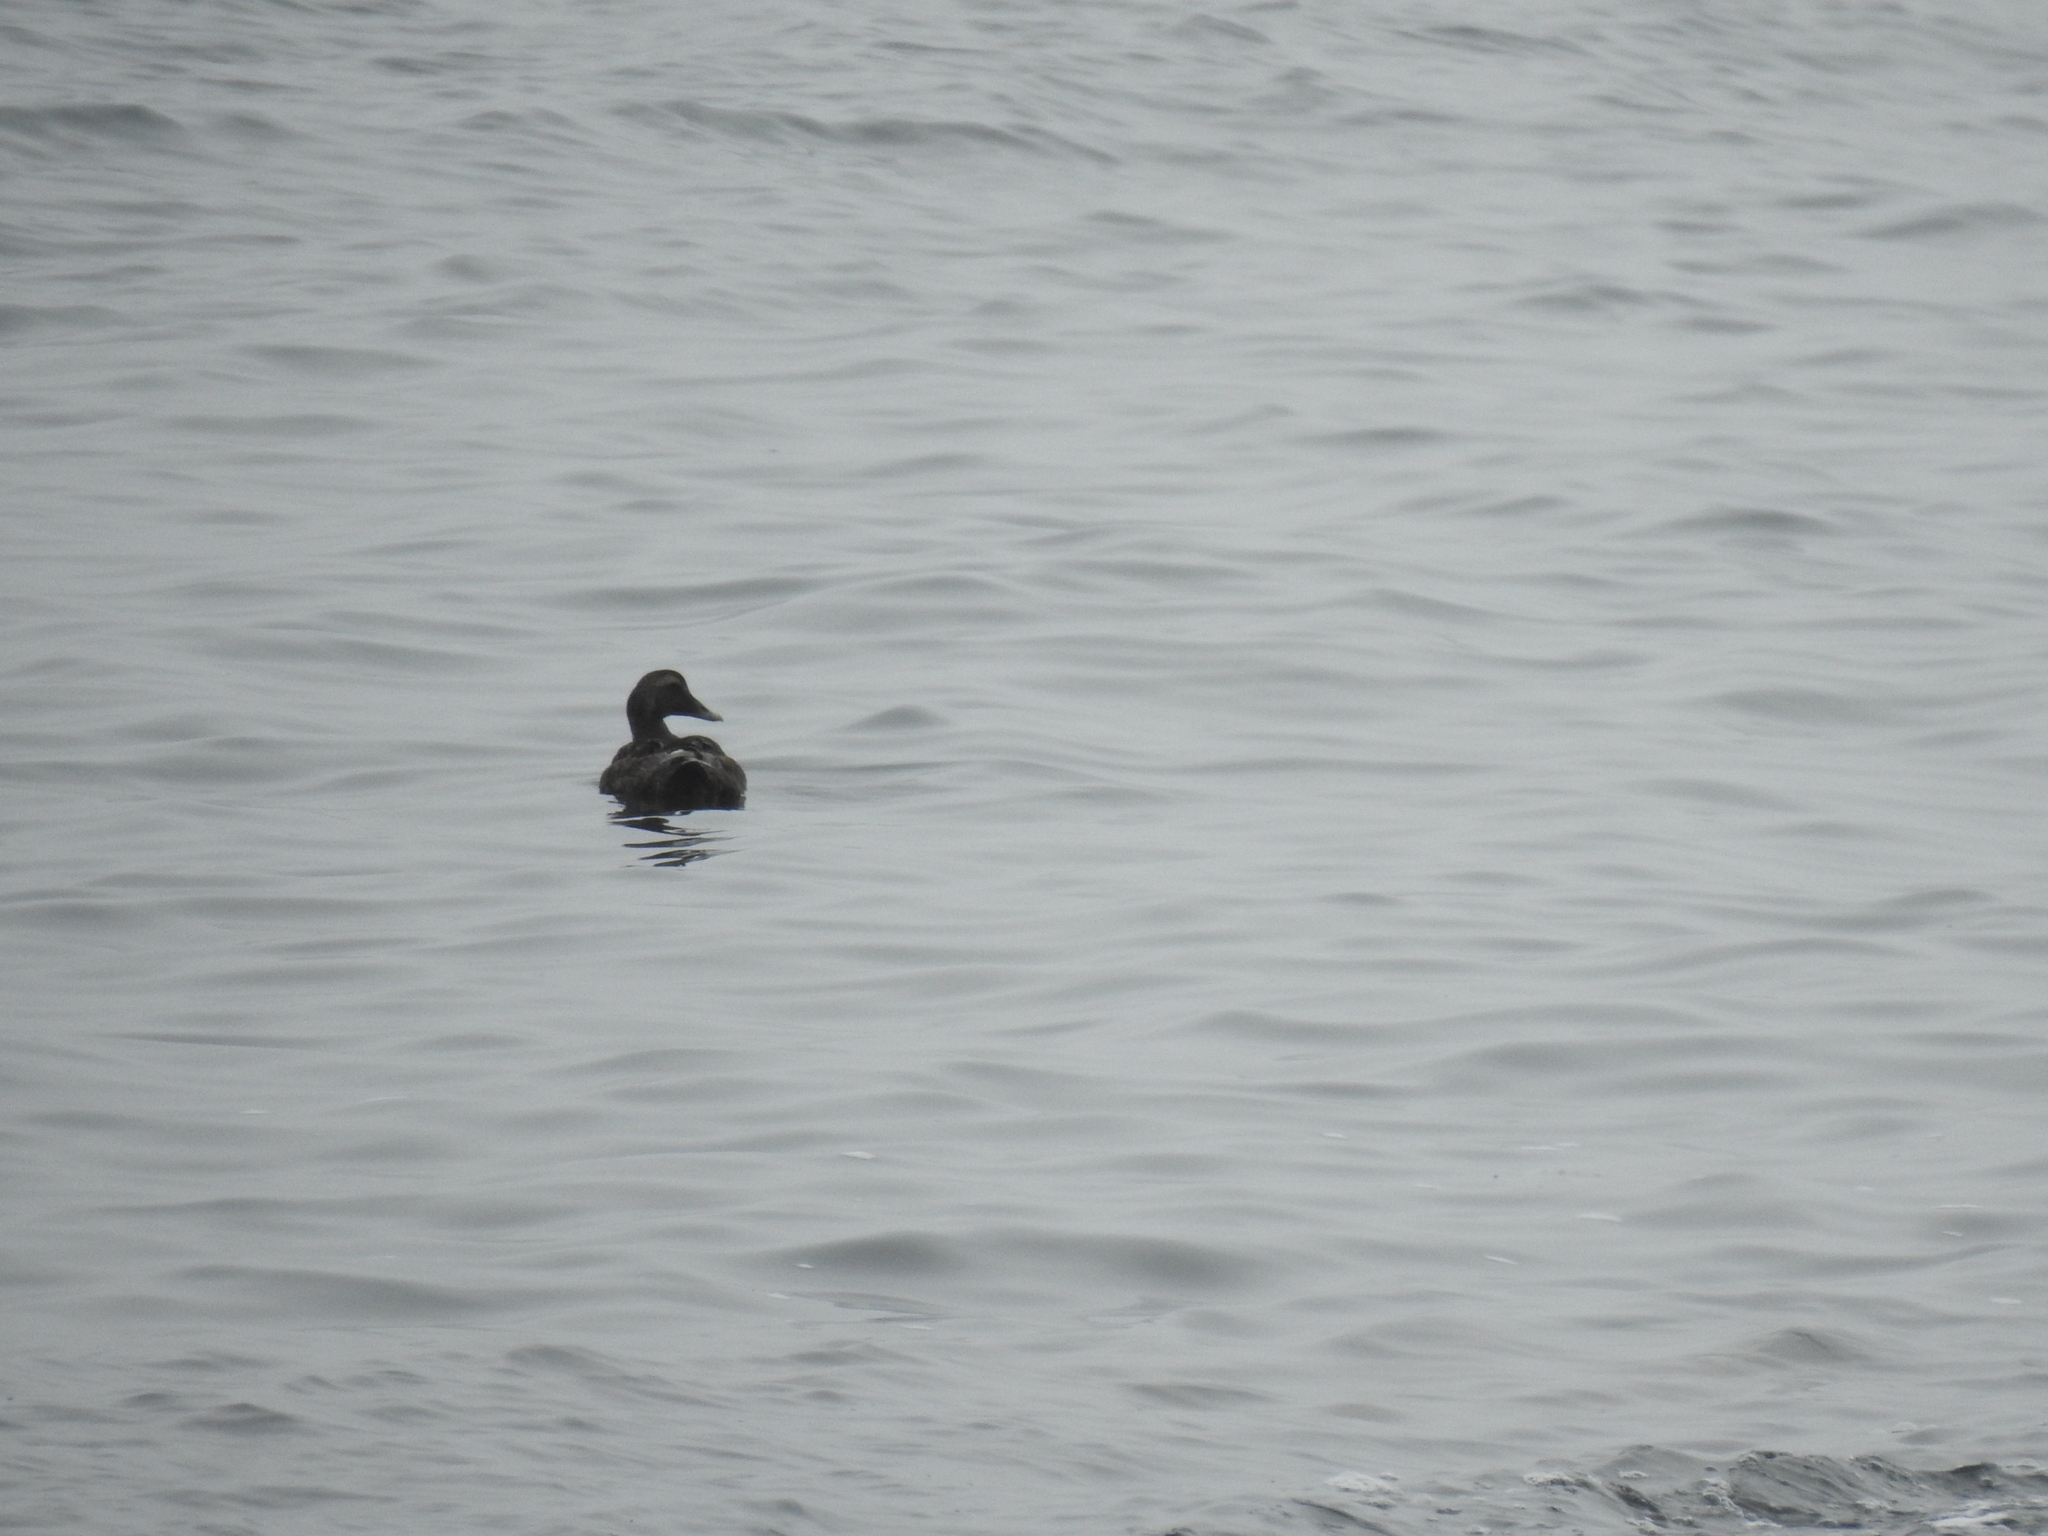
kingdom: Animalia
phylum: Chordata
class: Aves
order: Anseriformes
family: Anatidae
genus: Somateria
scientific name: Somateria mollissima
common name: Common eider
